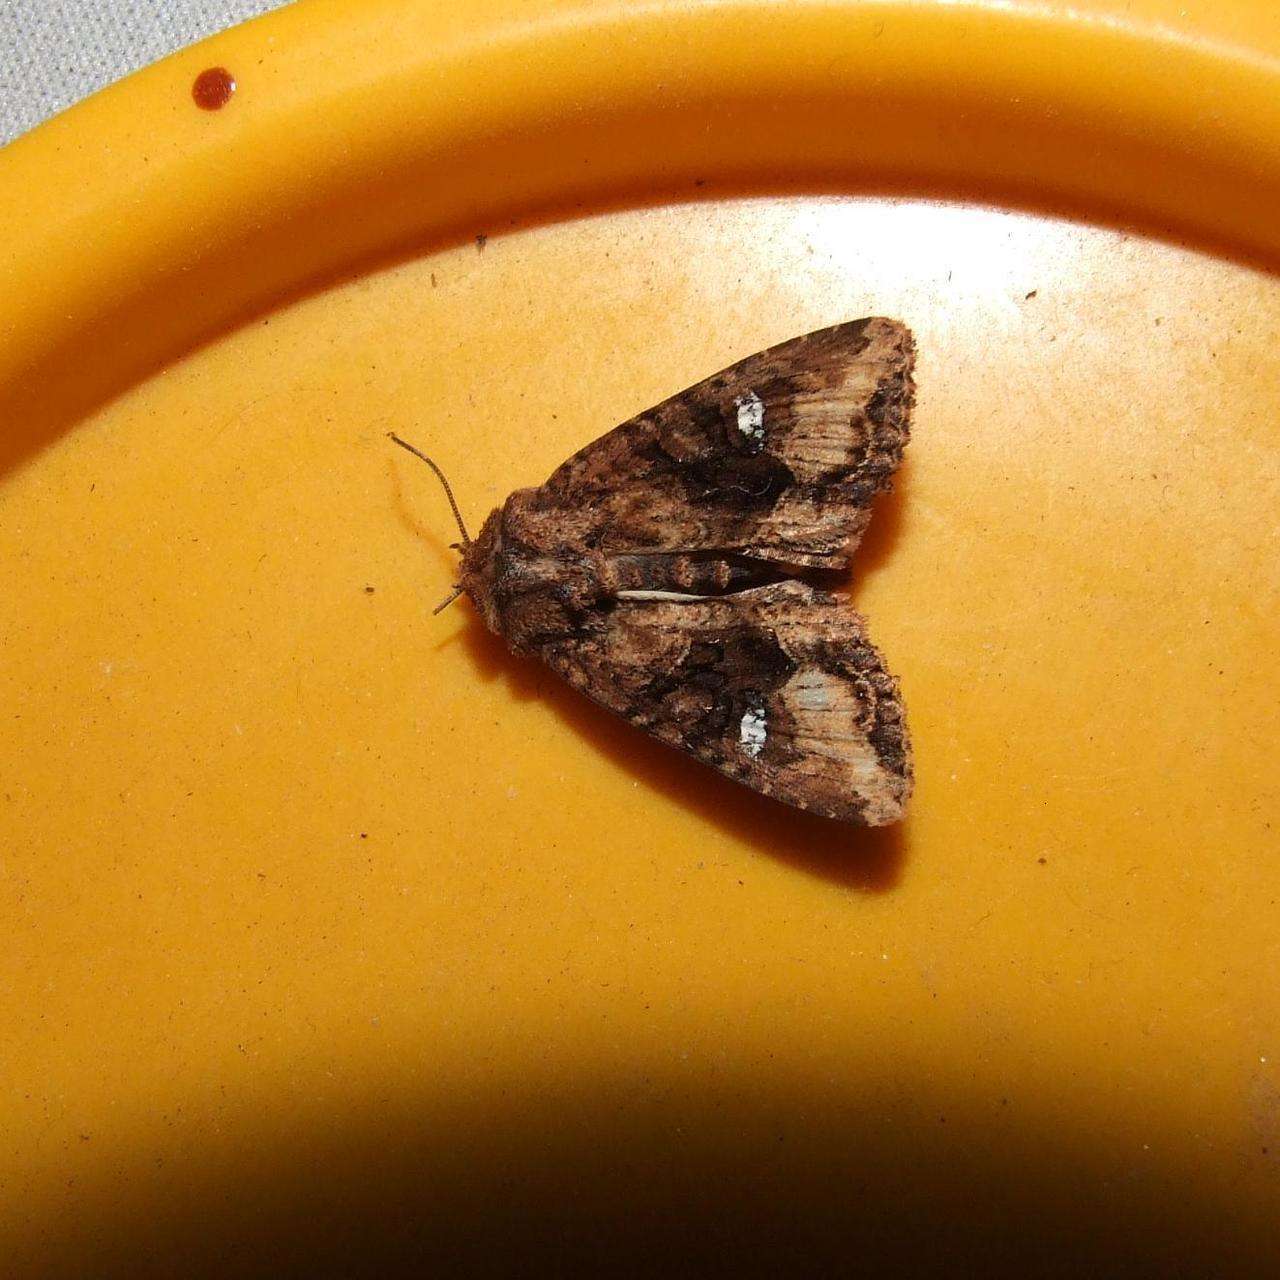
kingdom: Animalia
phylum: Arthropoda
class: Insecta
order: Lepidoptera
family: Noctuidae
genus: Neumichtis
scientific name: Neumichtis saliaris
